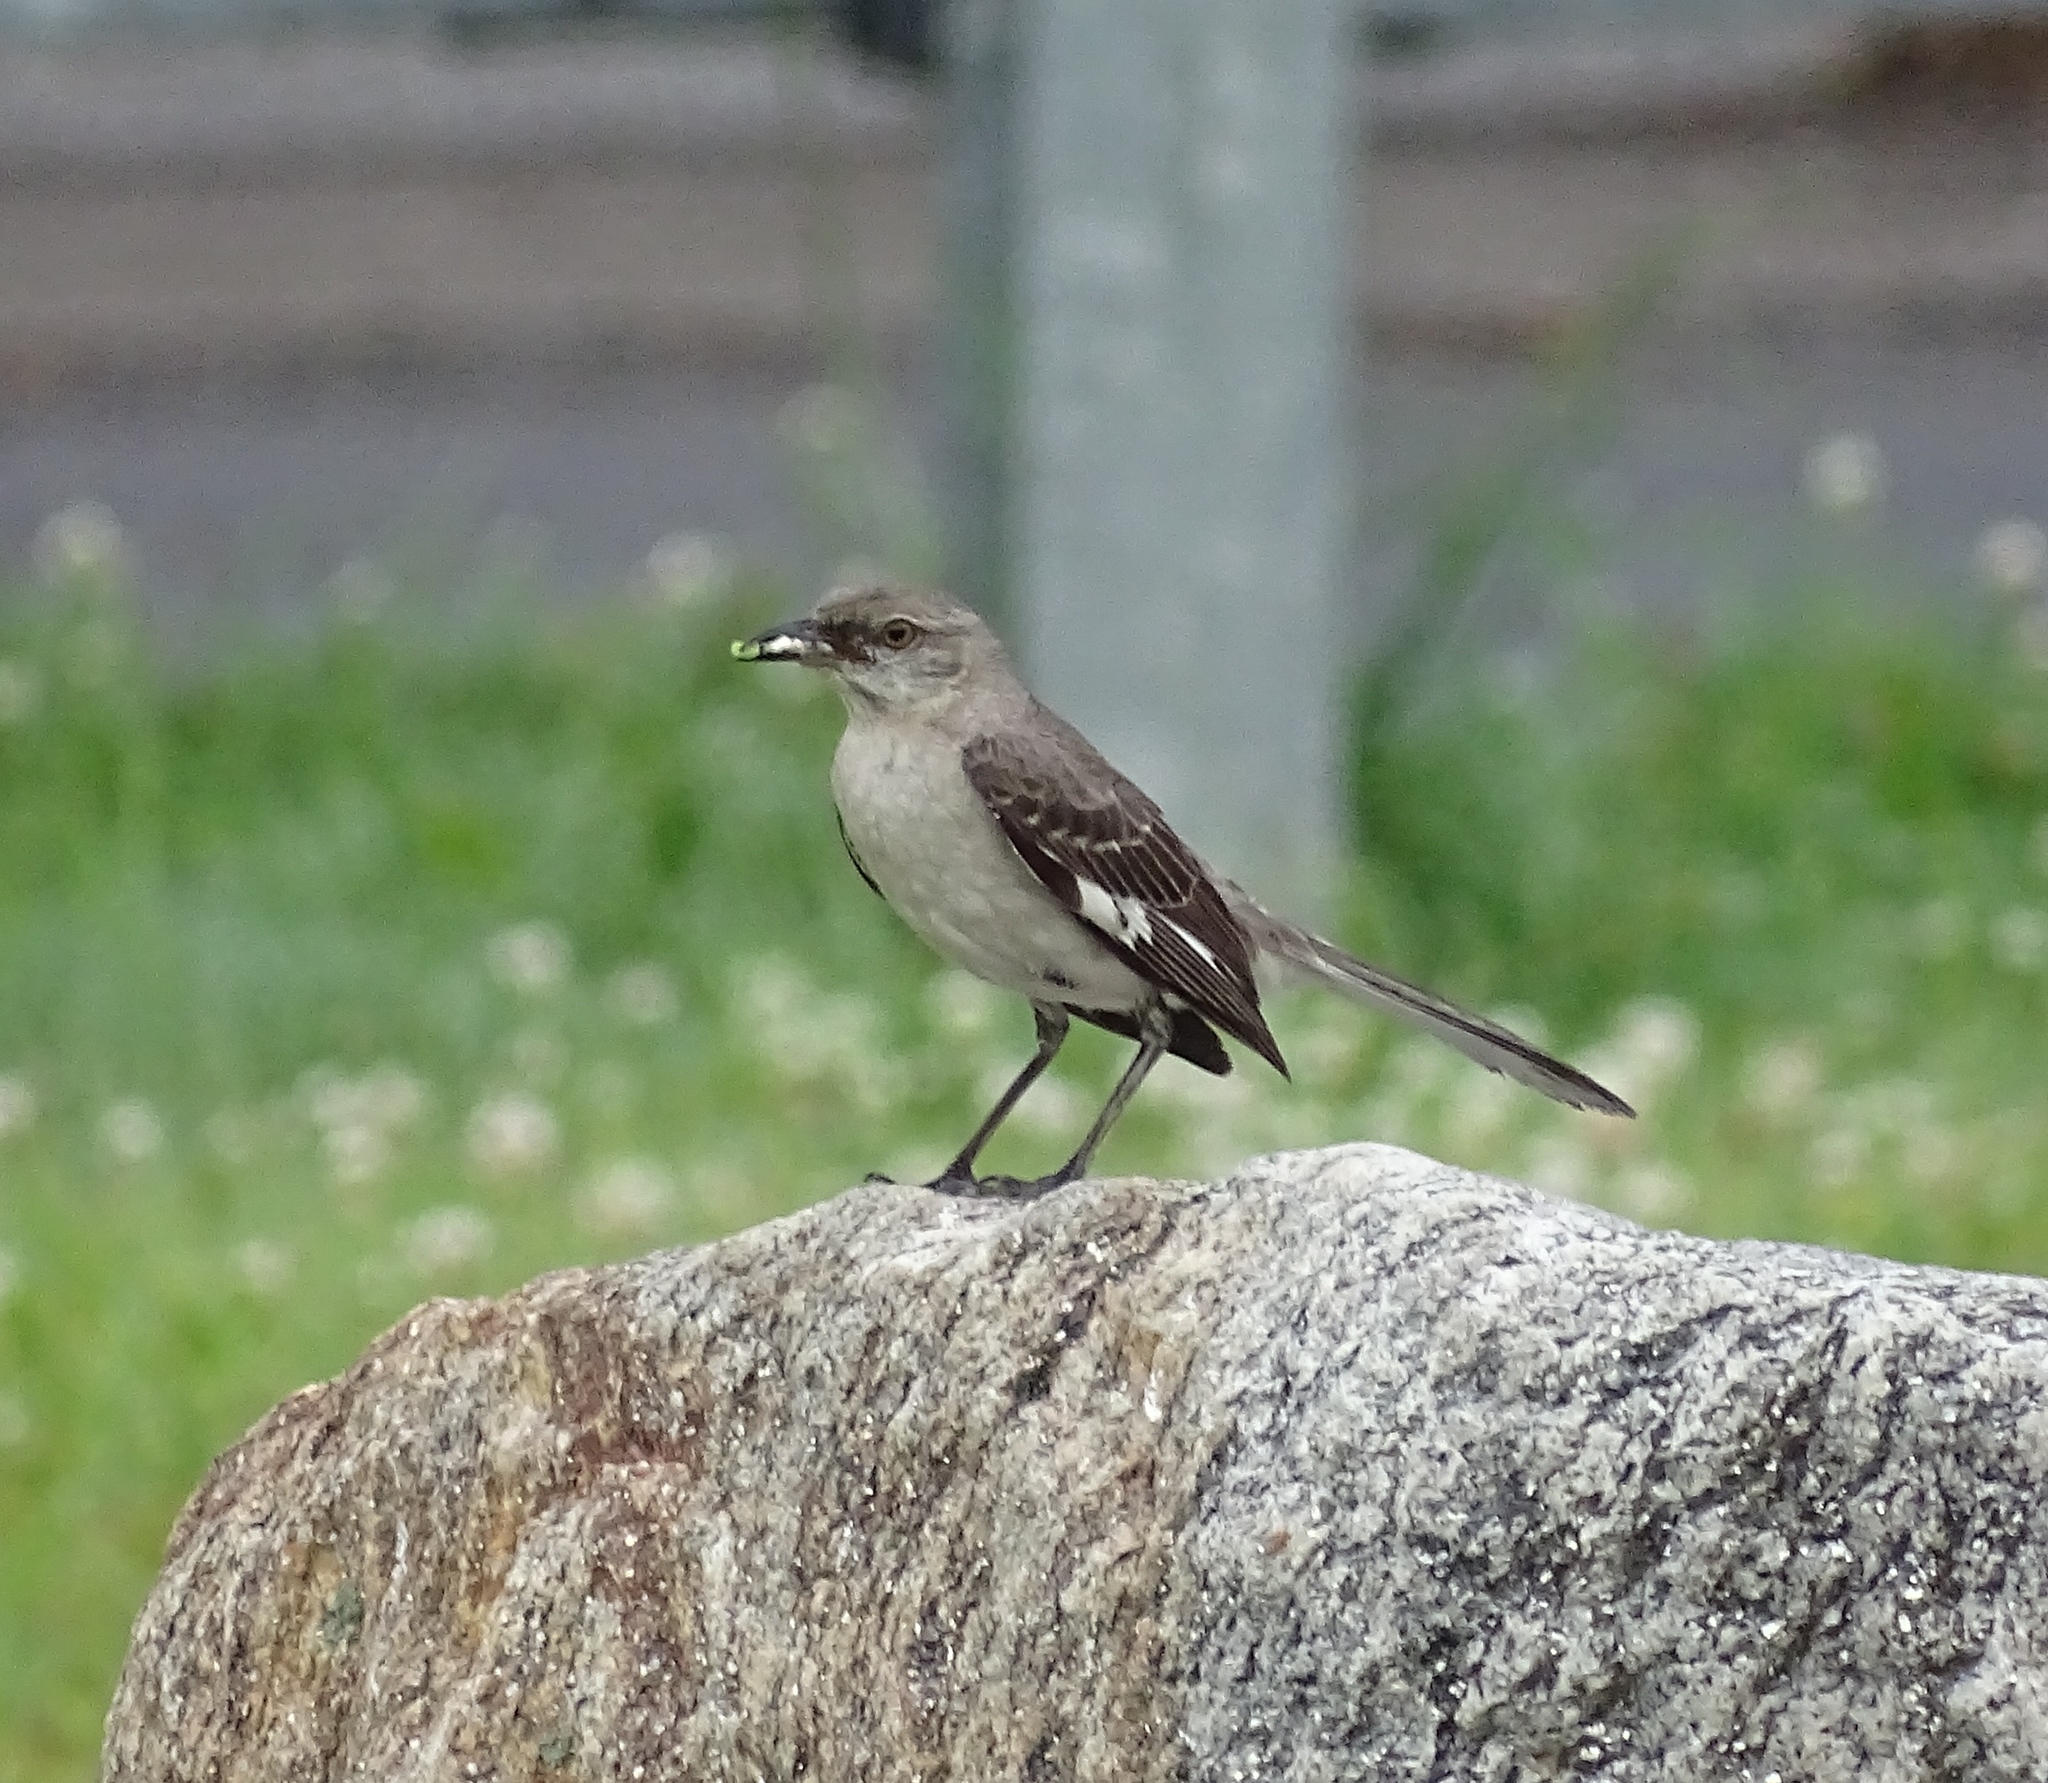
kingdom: Animalia
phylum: Chordata
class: Aves
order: Passeriformes
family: Mimidae
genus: Mimus
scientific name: Mimus polyglottos
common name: Northern mockingbird
